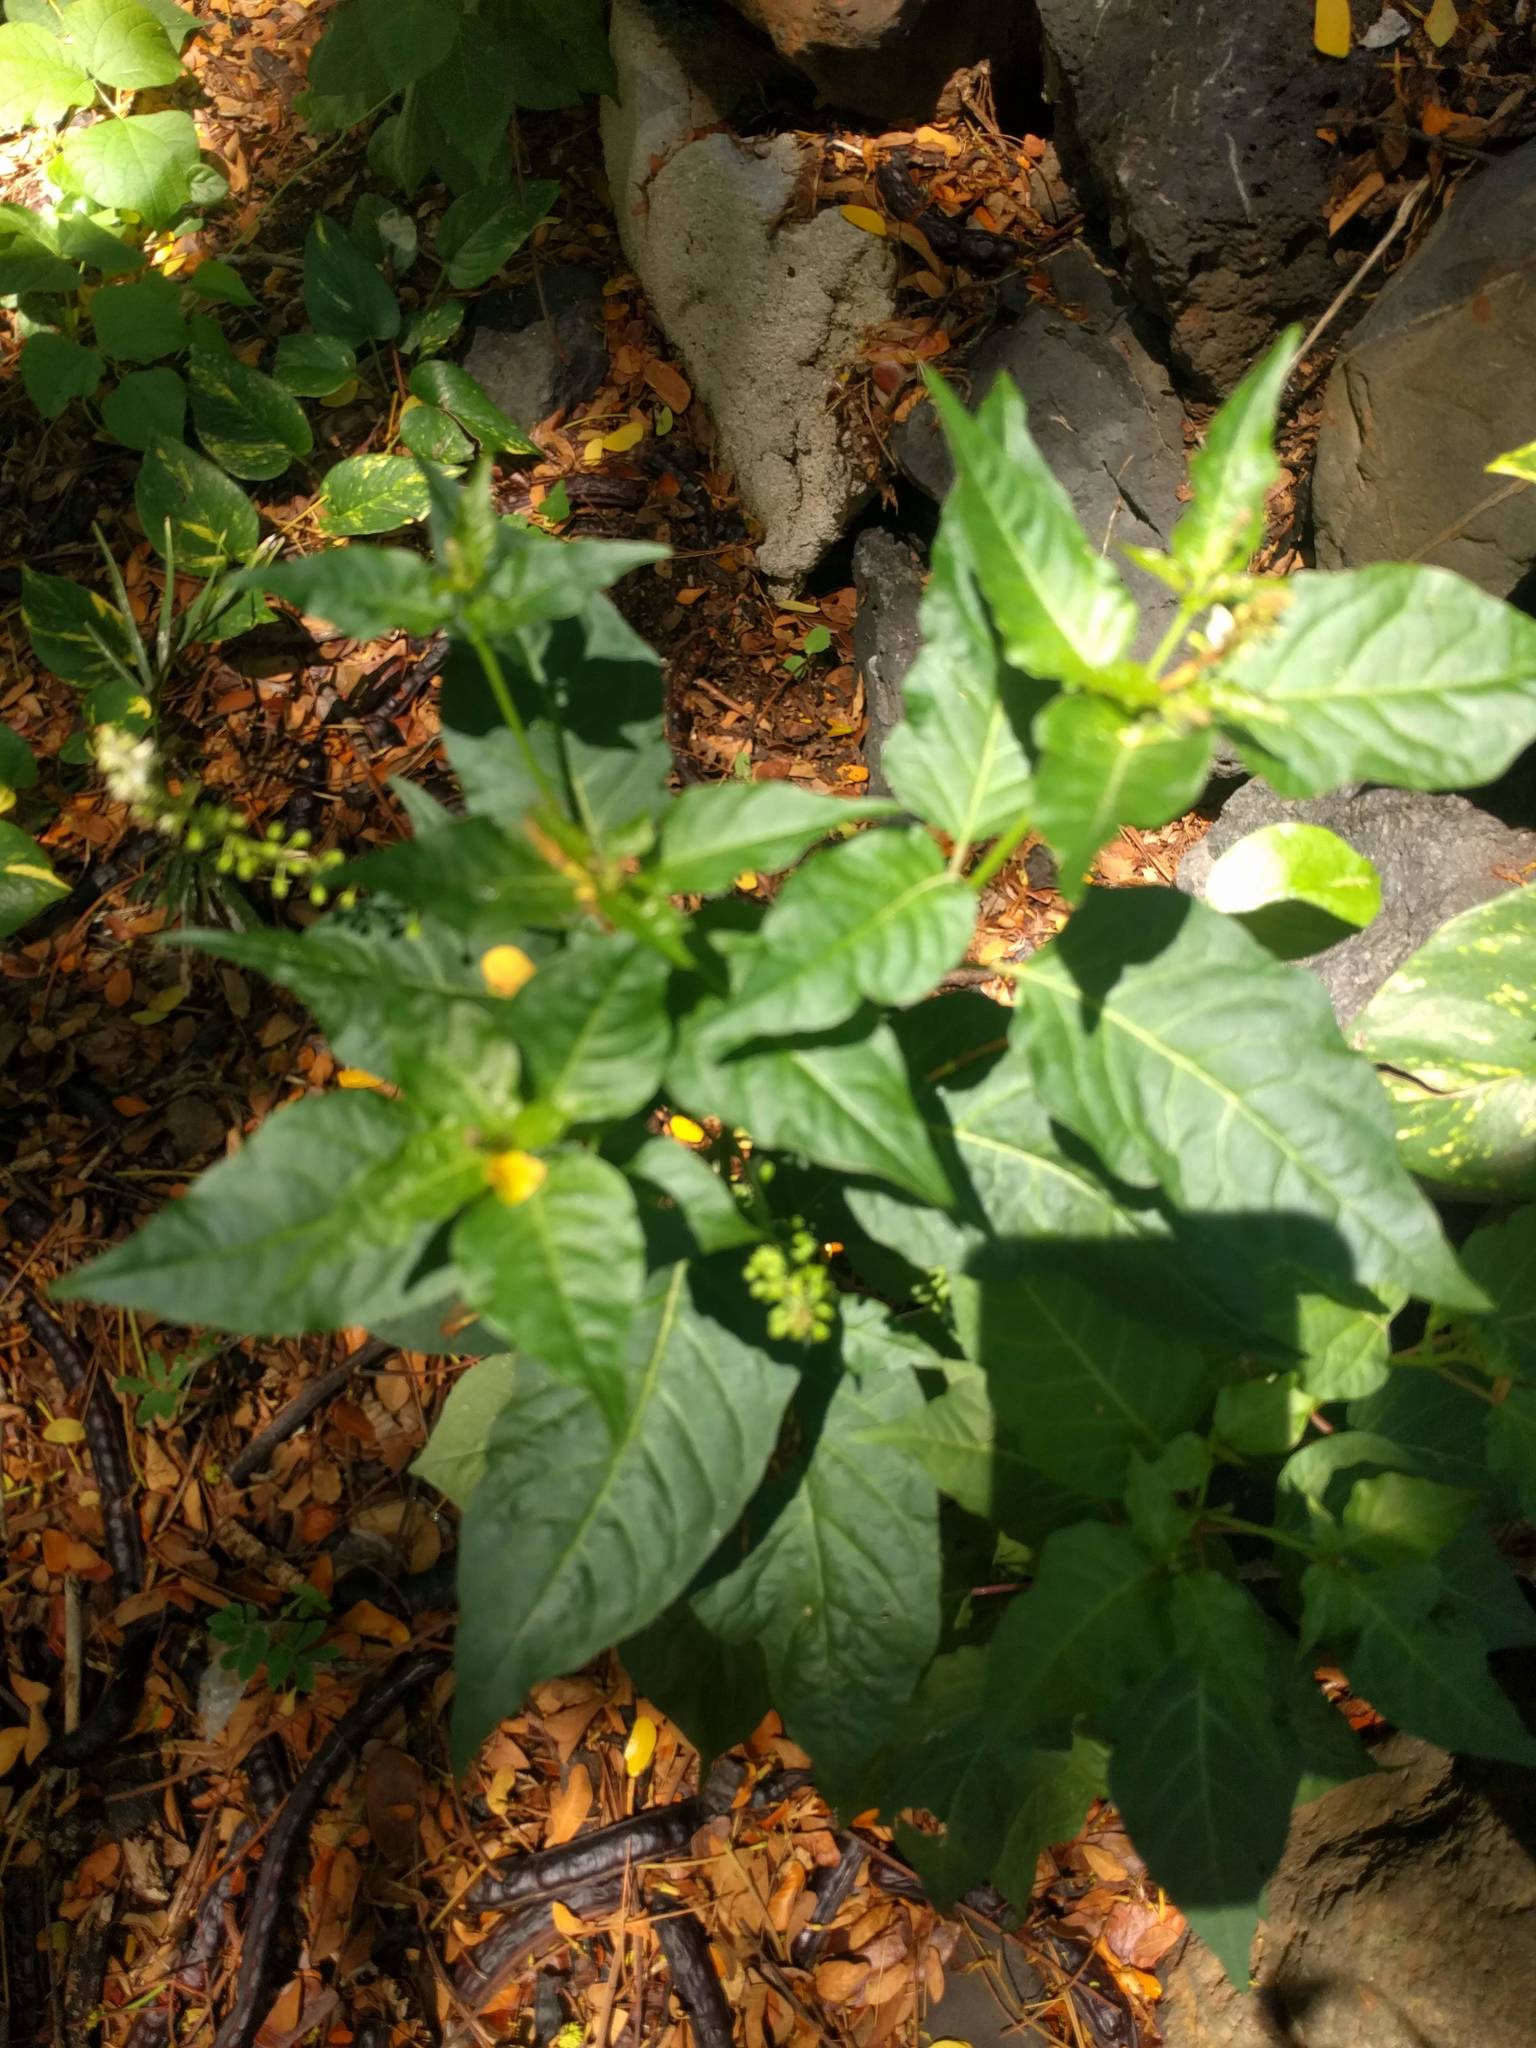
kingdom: Plantae
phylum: Tracheophyta
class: Magnoliopsida
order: Caryophyllales
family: Phytolaccaceae
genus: Rivina
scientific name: Rivina humilis
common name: Rougeplant
